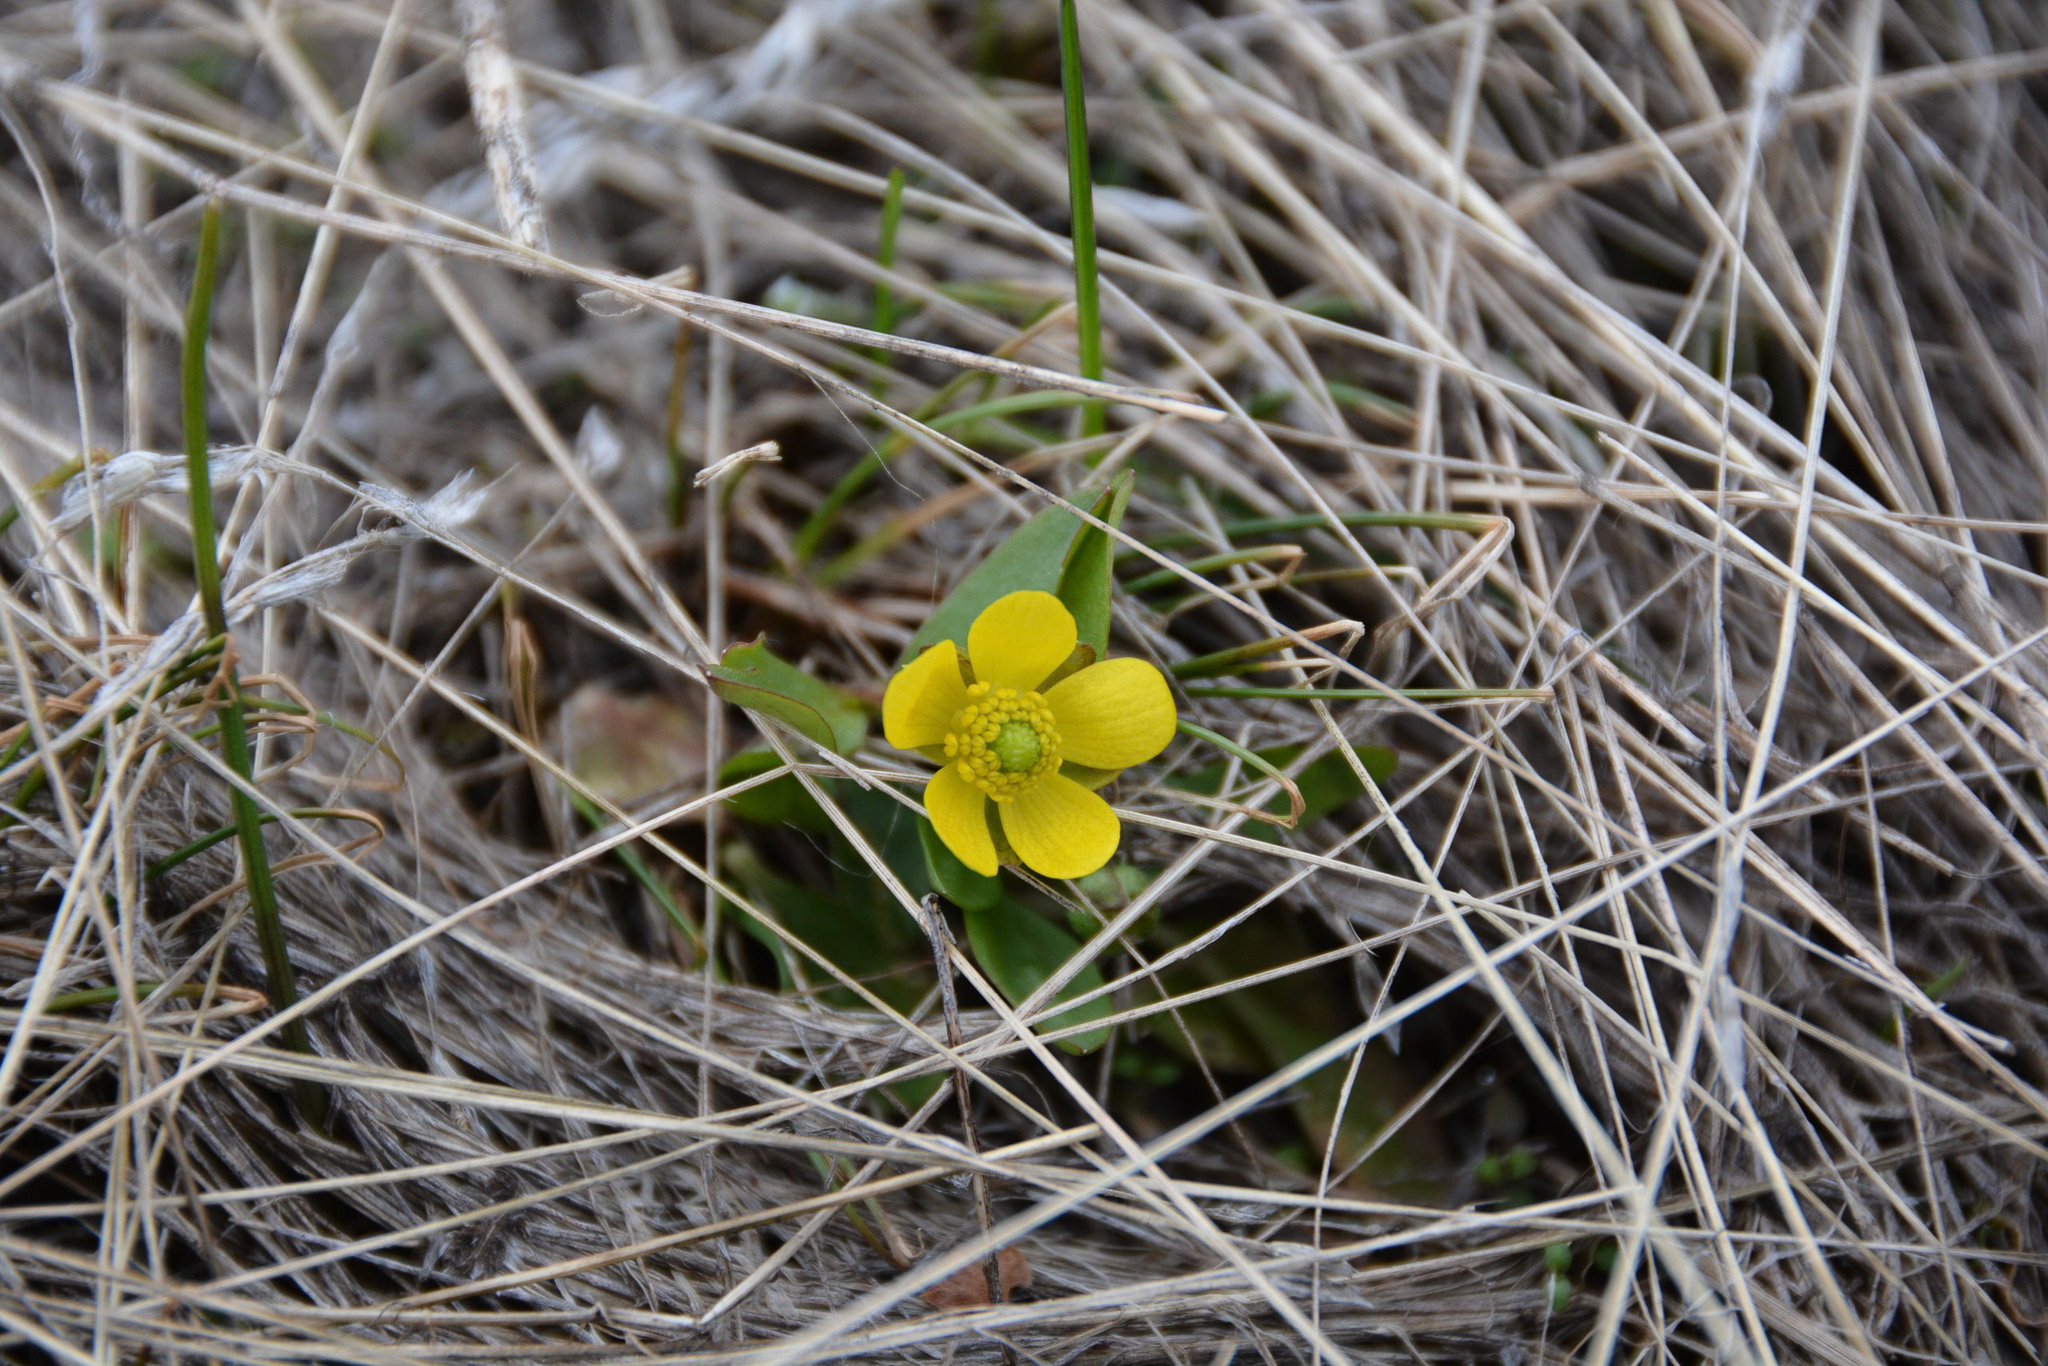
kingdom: Plantae
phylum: Tracheophyta
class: Magnoliopsida
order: Ranunculales
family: Ranunculaceae
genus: Ranunculus
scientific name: Ranunculus glaberrimus
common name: Sagebrush buttercup
